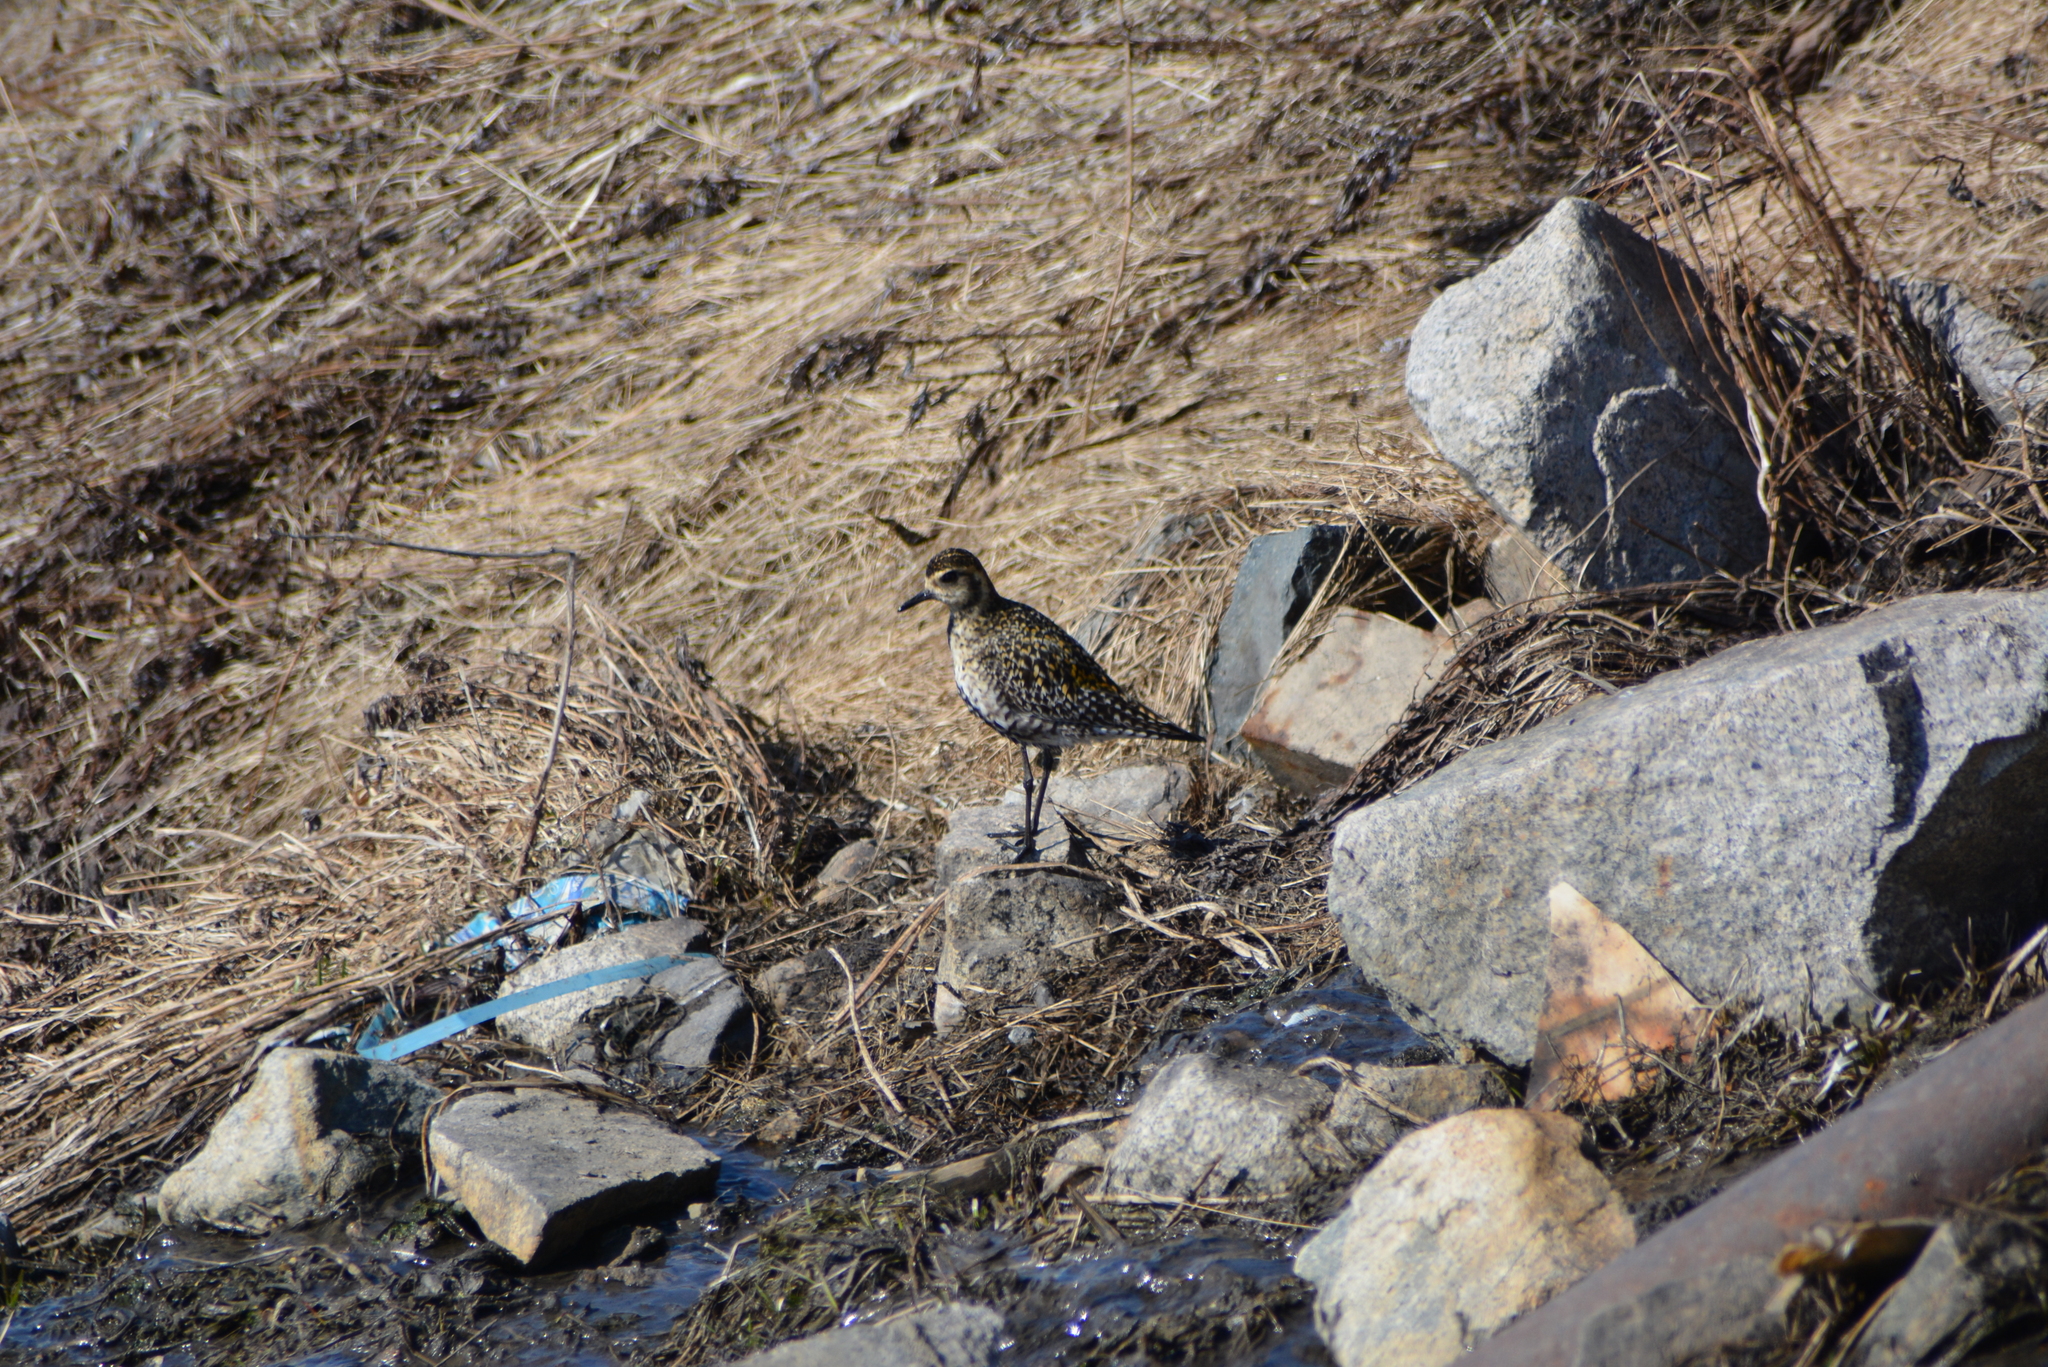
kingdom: Animalia
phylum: Chordata
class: Aves
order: Charadriiformes
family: Charadriidae
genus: Pluvialis
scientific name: Pluvialis fulva
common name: Pacific golden plover
